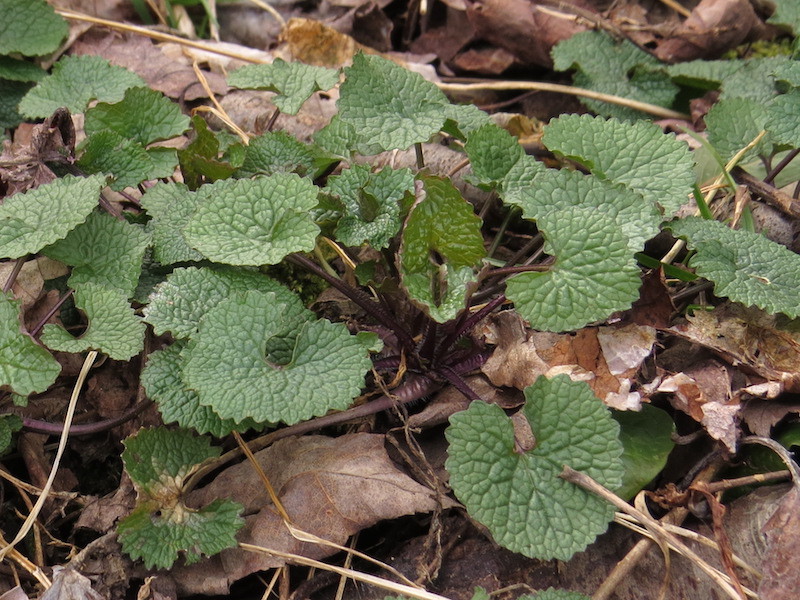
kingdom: Plantae
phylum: Tracheophyta
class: Magnoliopsida
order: Brassicales
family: Brassicaceae
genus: Alliaria
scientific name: Alliaria petiolata
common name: Garlic mustard
